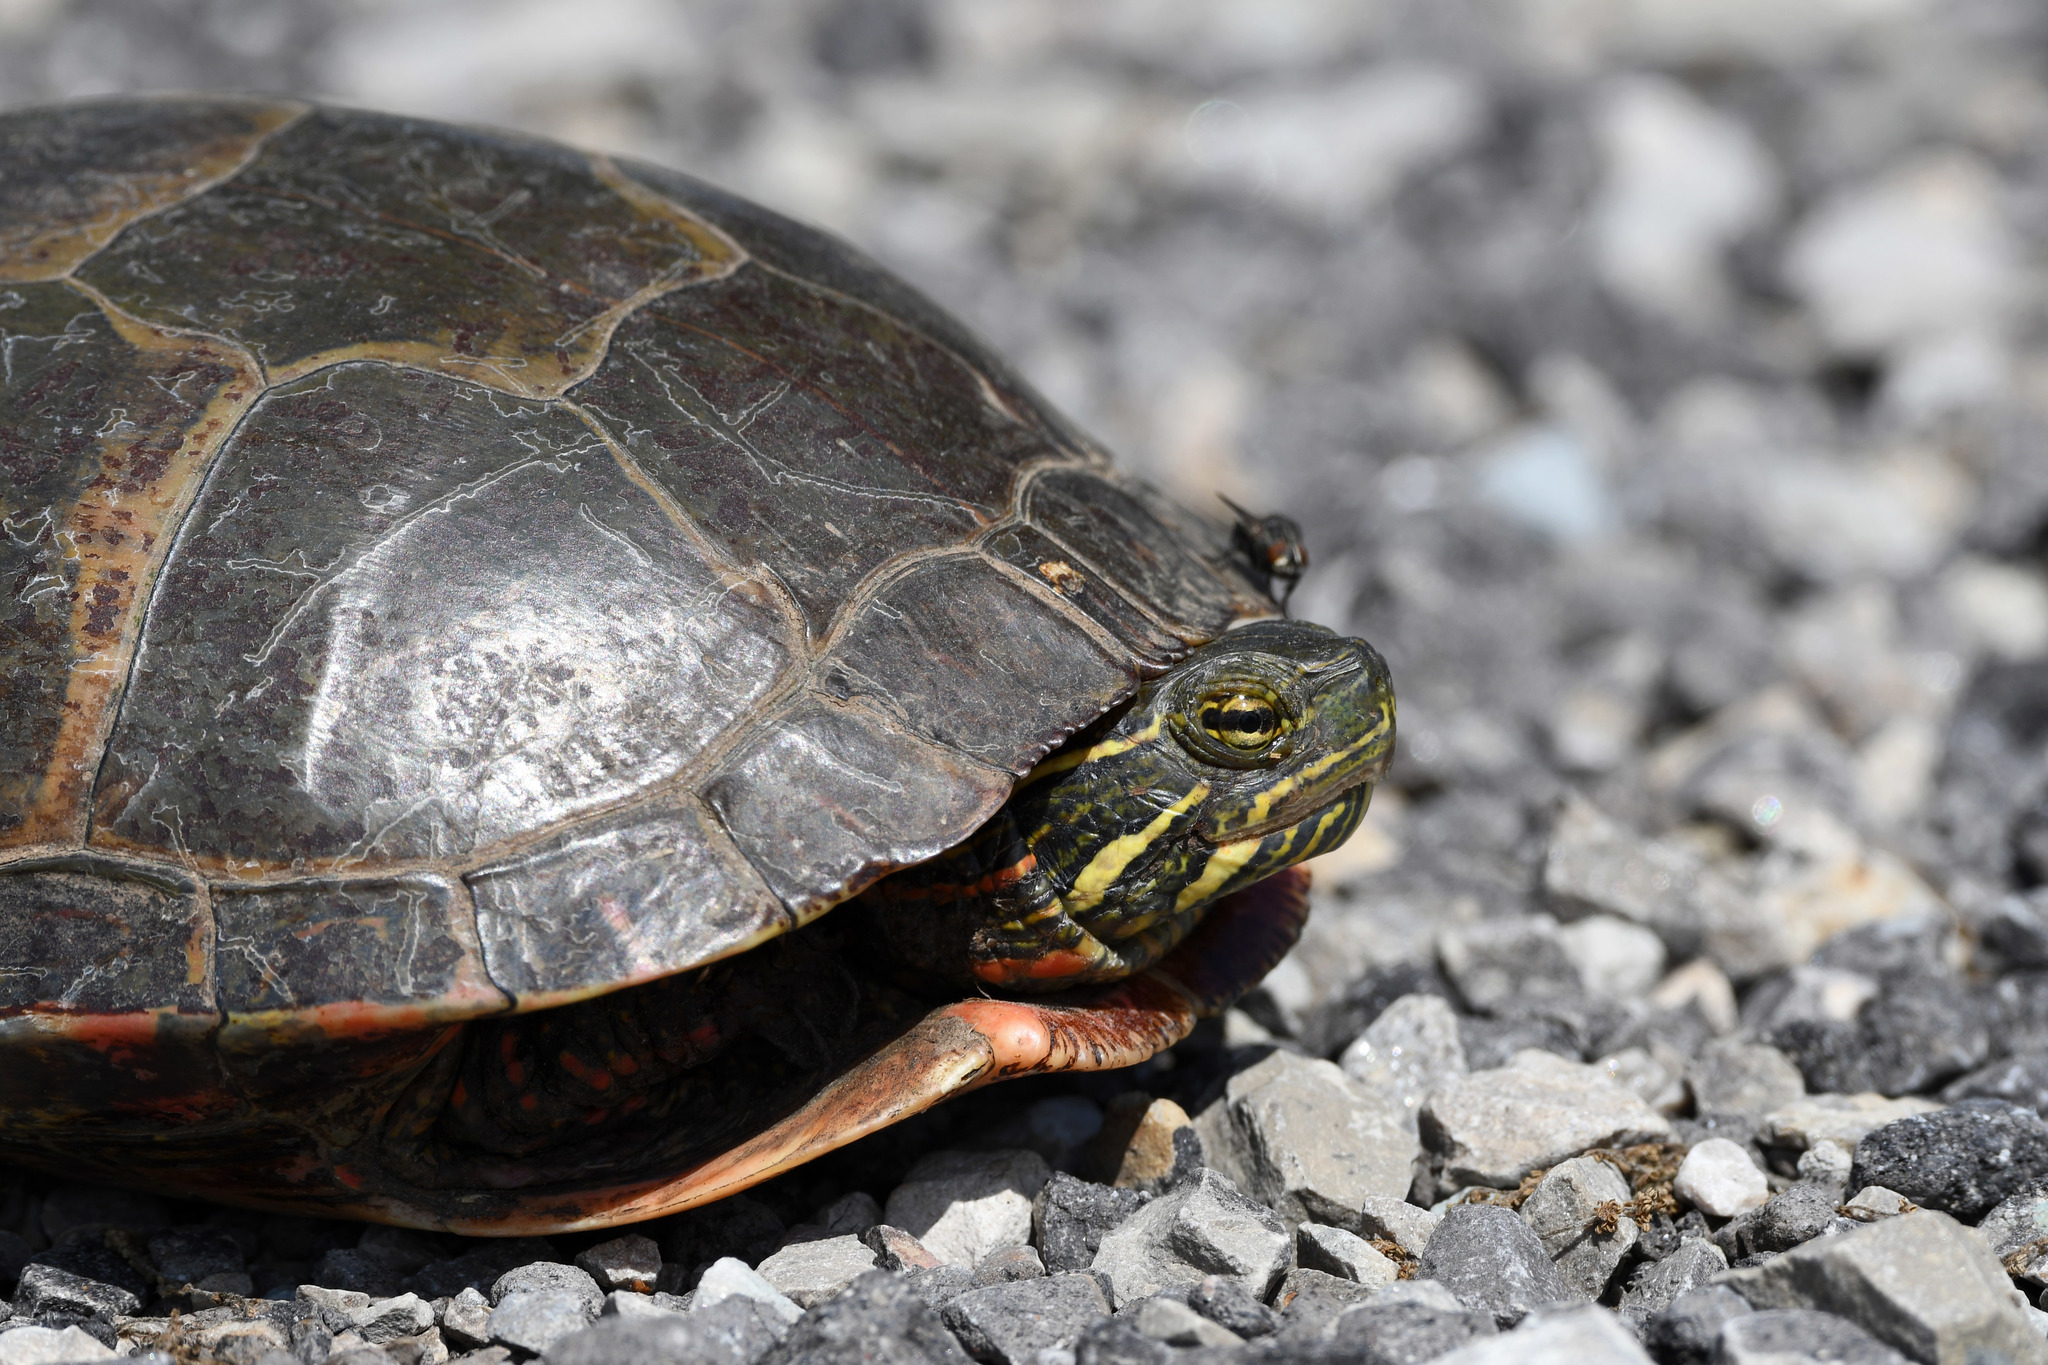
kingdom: Animalia
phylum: Chordata
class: Testudines
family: Emydidae
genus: Chrysemys
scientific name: Chrysemys picta
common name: Painted turtle
